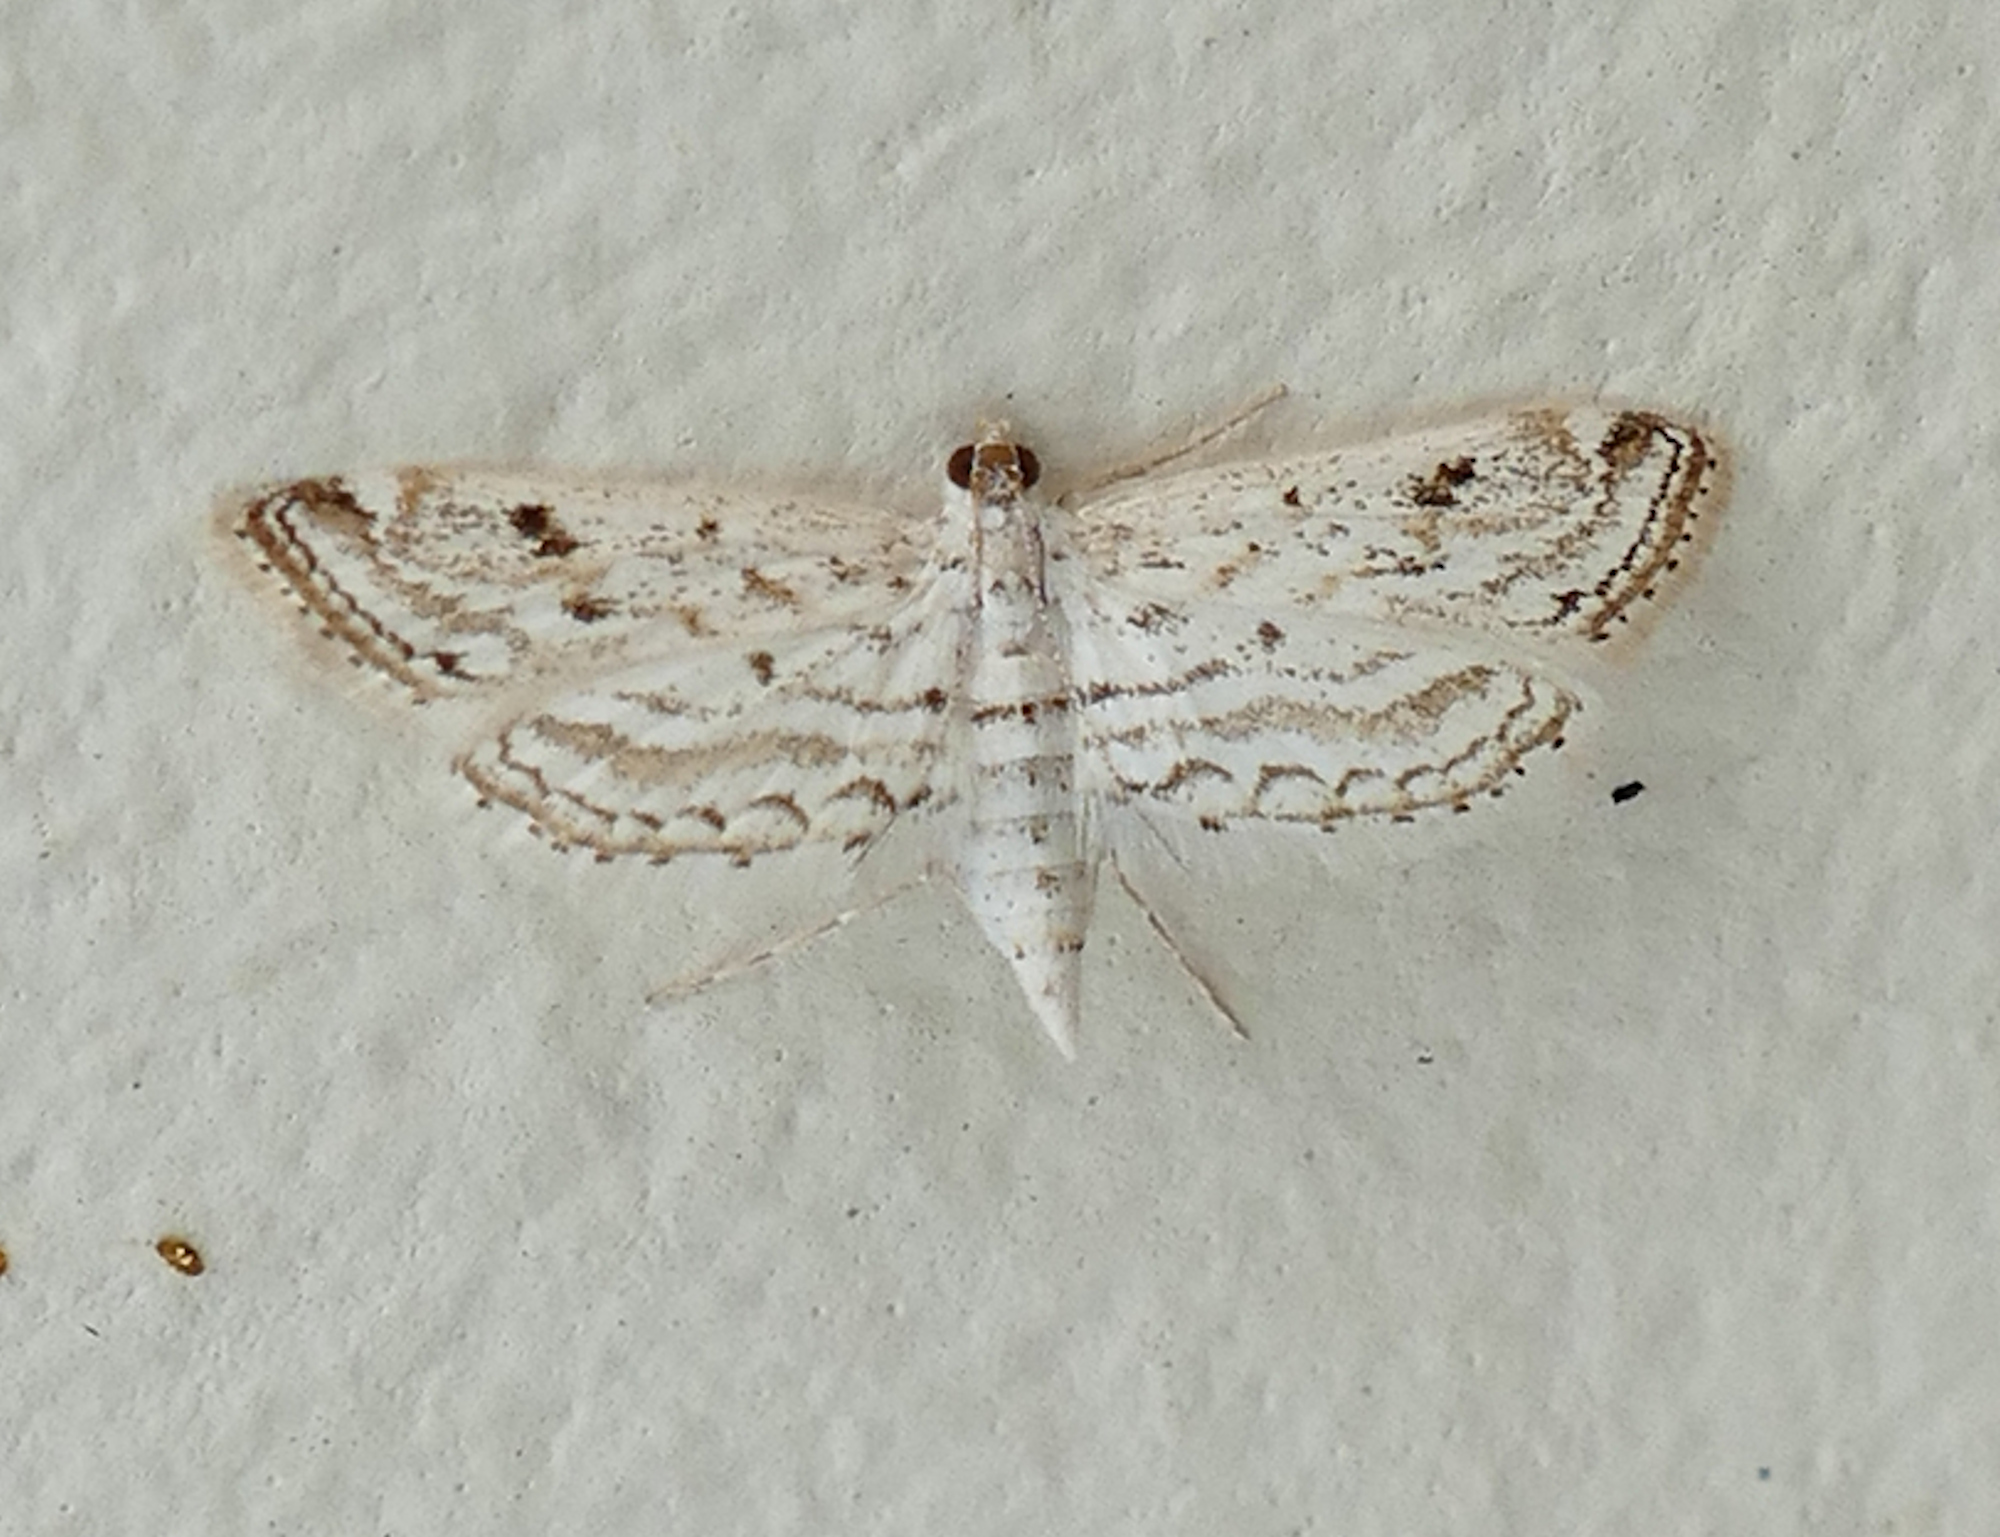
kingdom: Animalia
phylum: Arthropoda
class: Insecta
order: Lepidoptera
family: Crambidae
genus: Parapoynx
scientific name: Parapoynx allionealis
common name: Bladderwort casemaker
